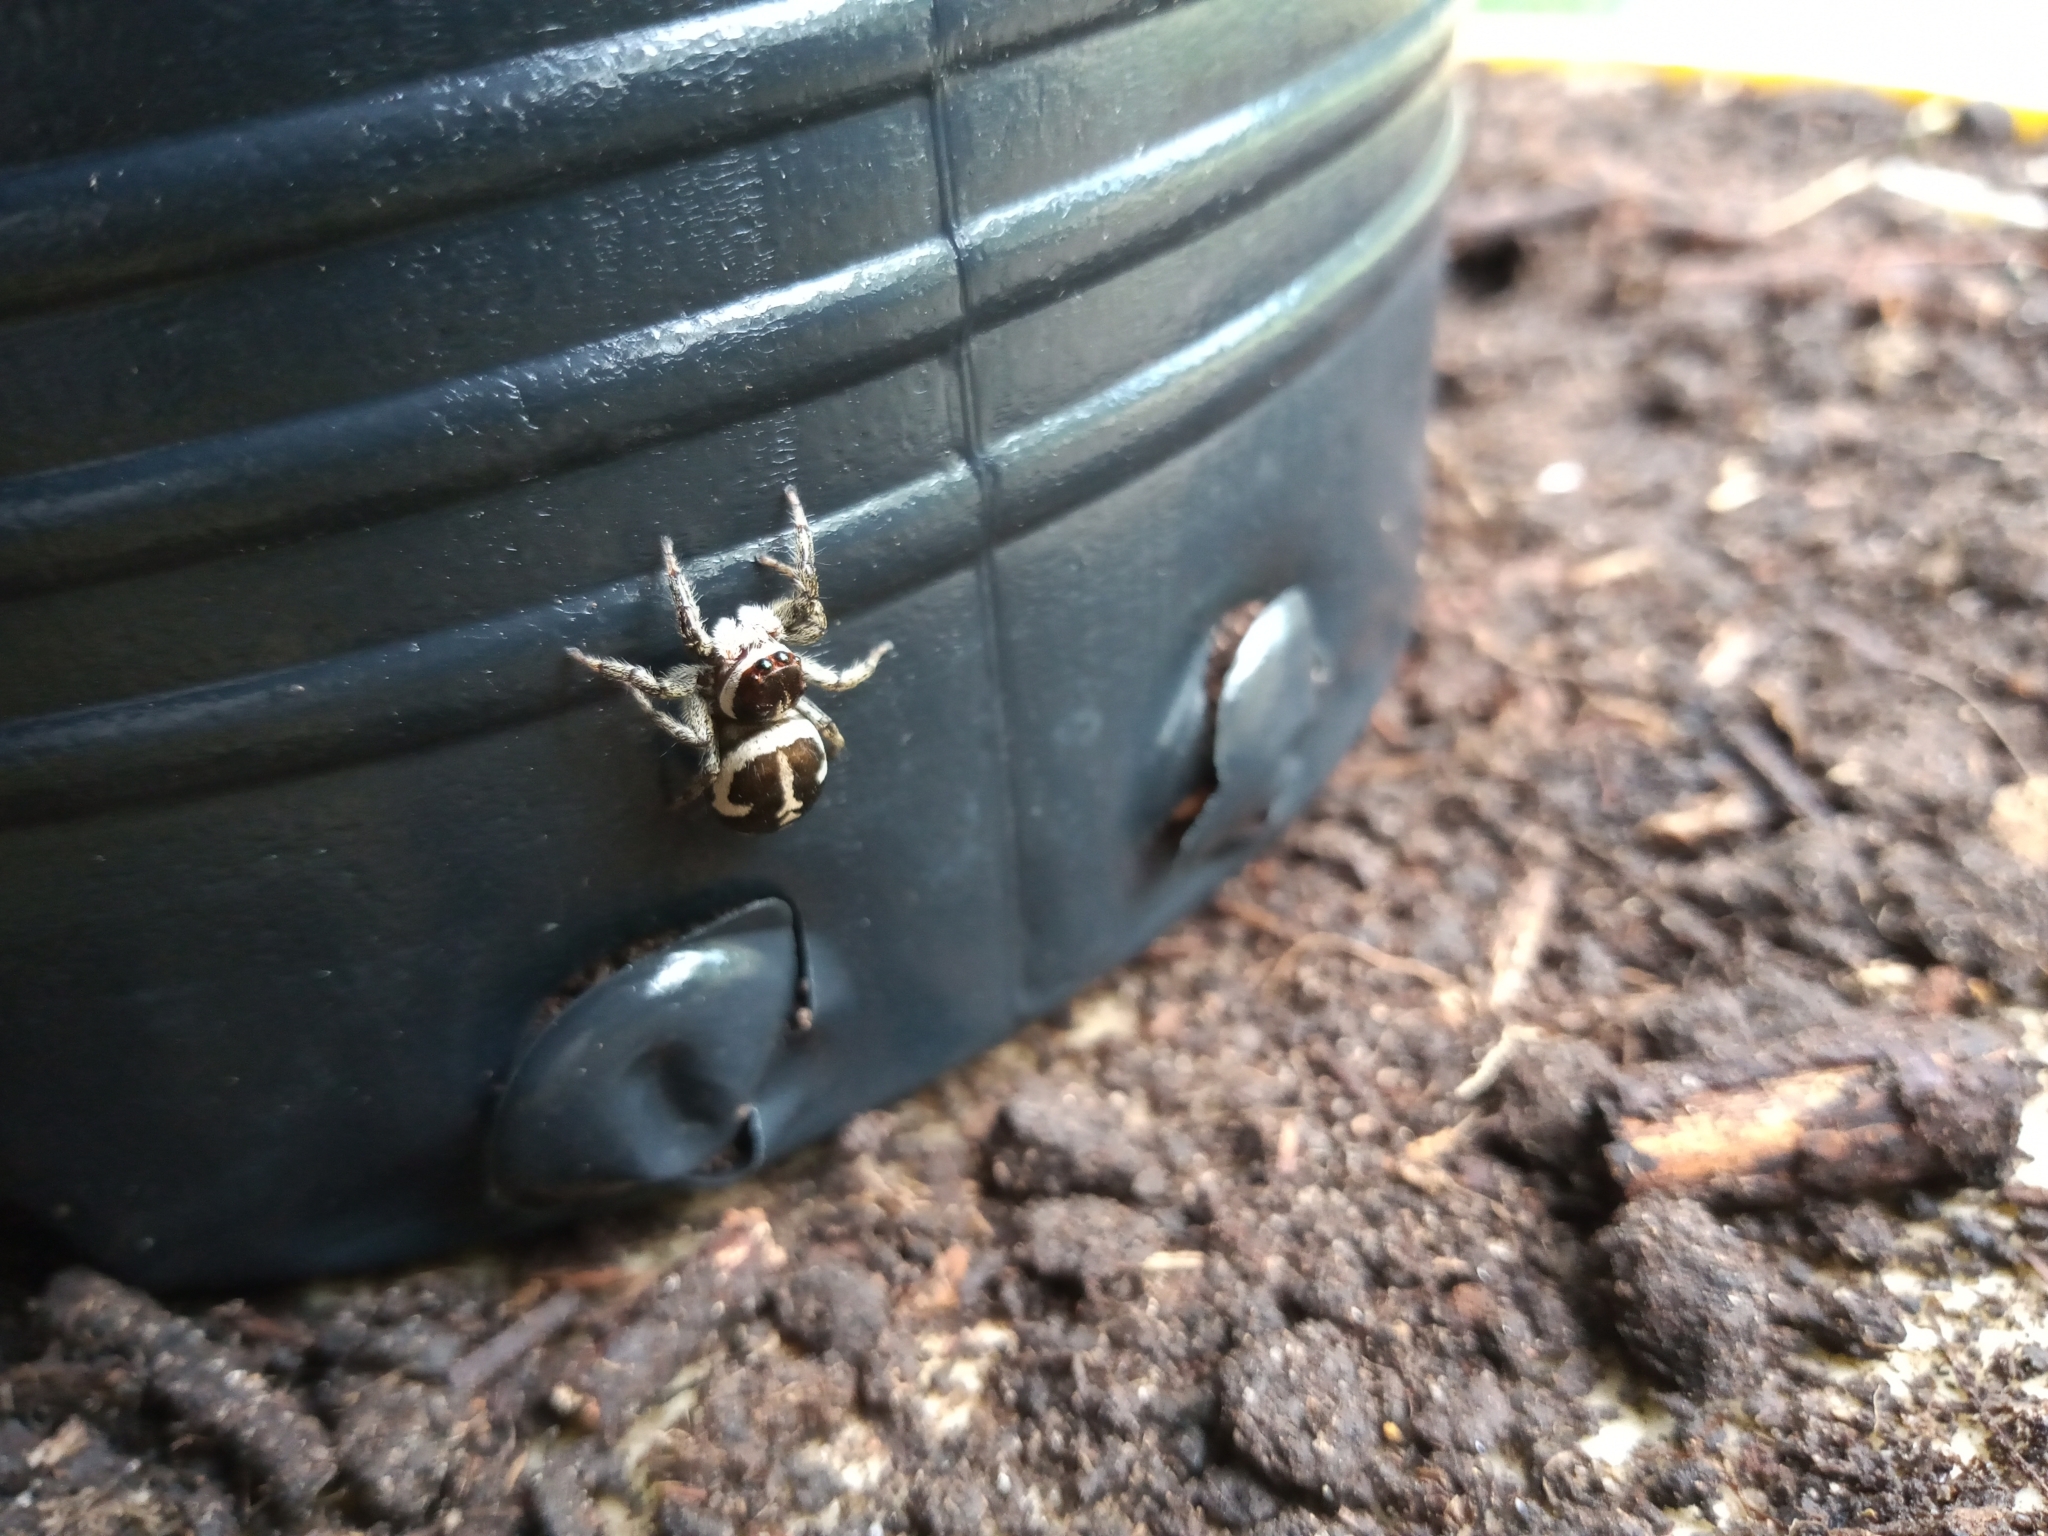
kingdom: Animalia
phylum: Arthropoda
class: Arachnida
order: Araneae
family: Salticidae
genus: Phiale
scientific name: Phiale roburifoliata
